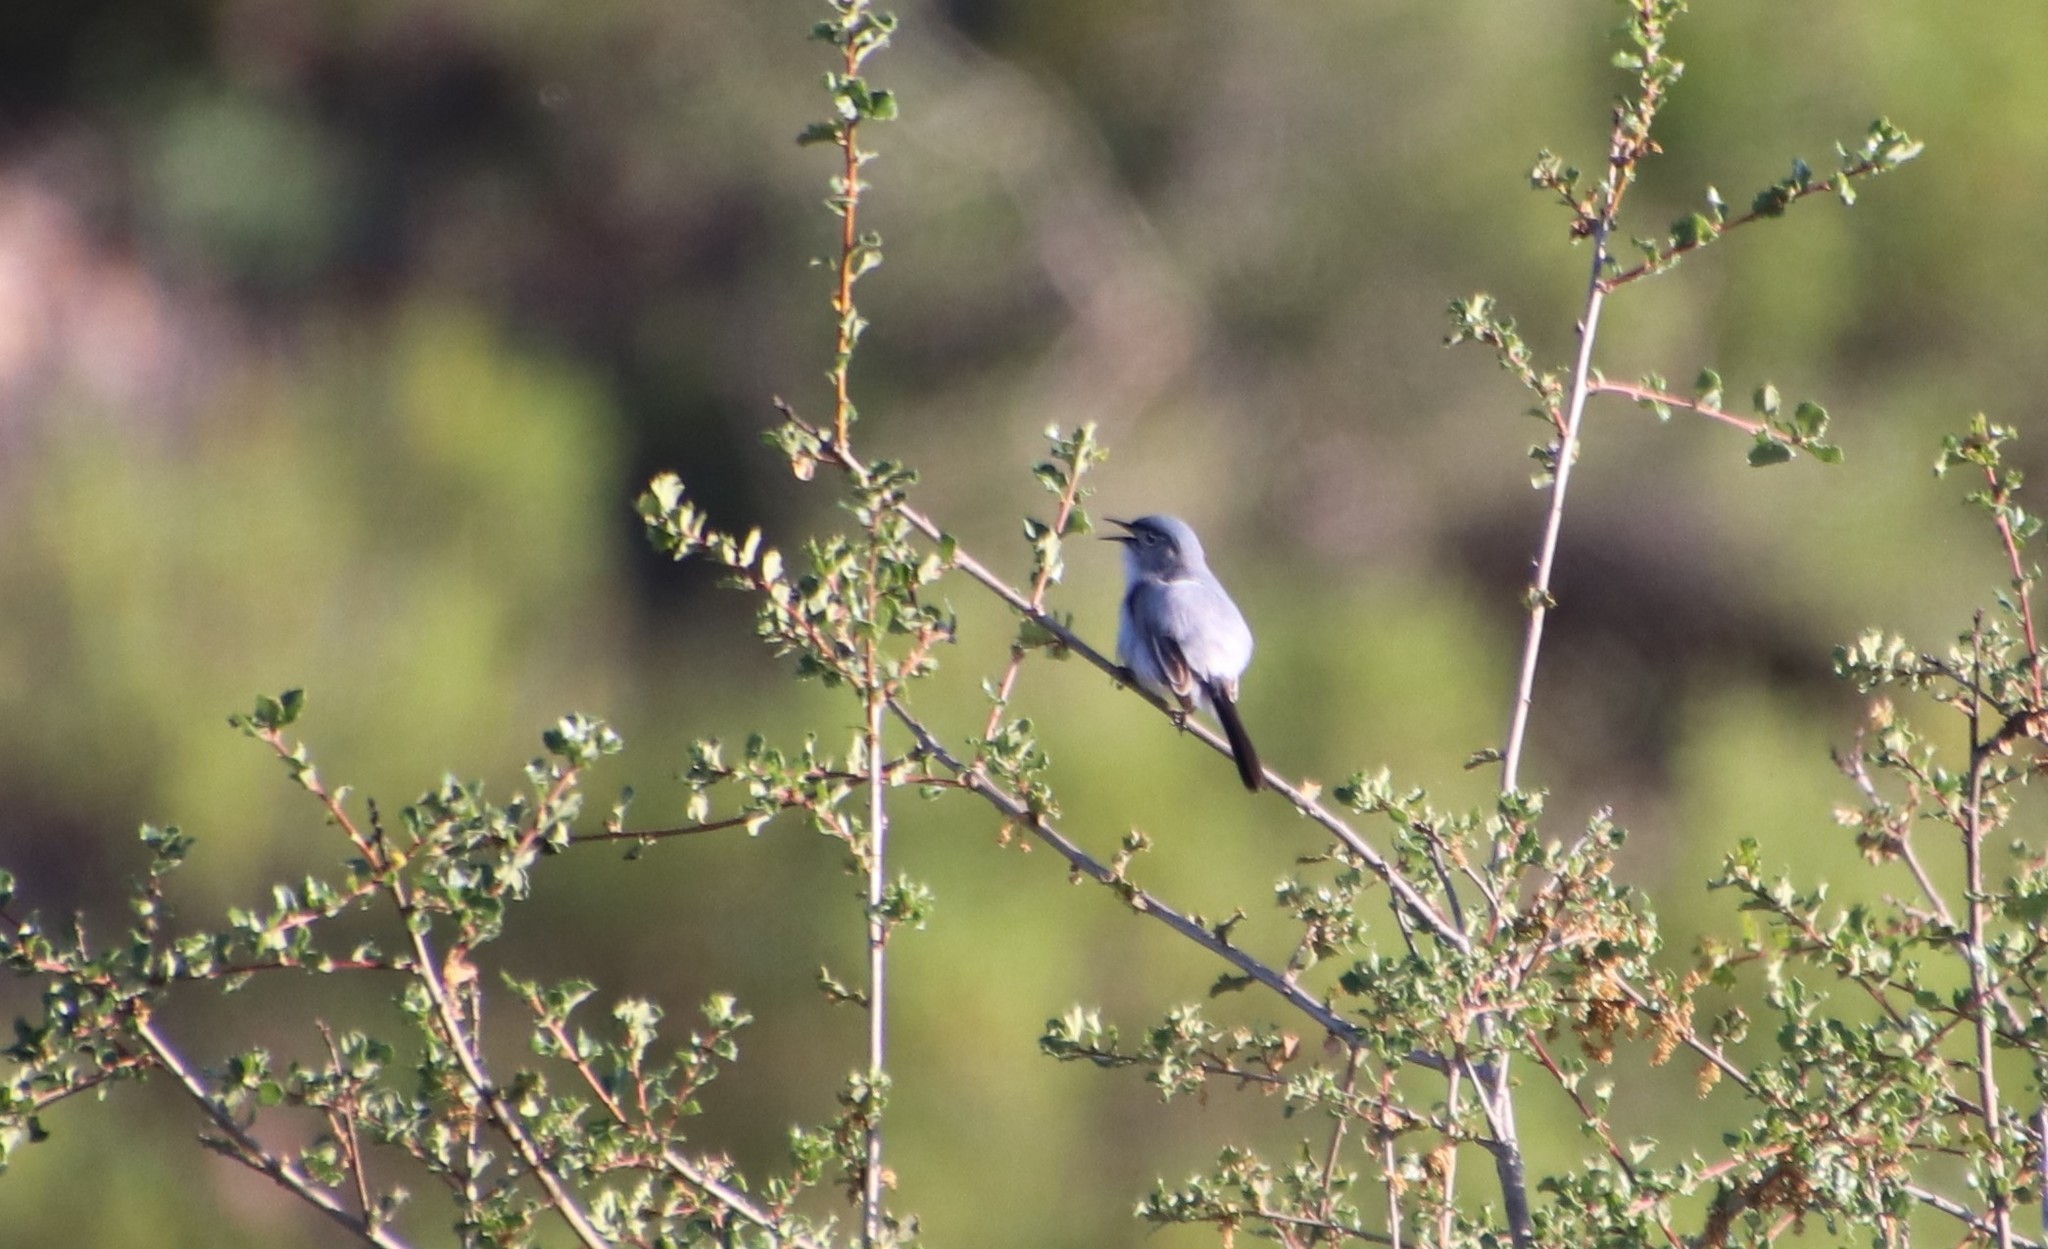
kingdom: Animalia
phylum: Chordata
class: Aves
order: Passeriformes
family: Polioptilidae
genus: Polioptila
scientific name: Polioptila caerulea
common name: Blue-gray gnatcatcher
